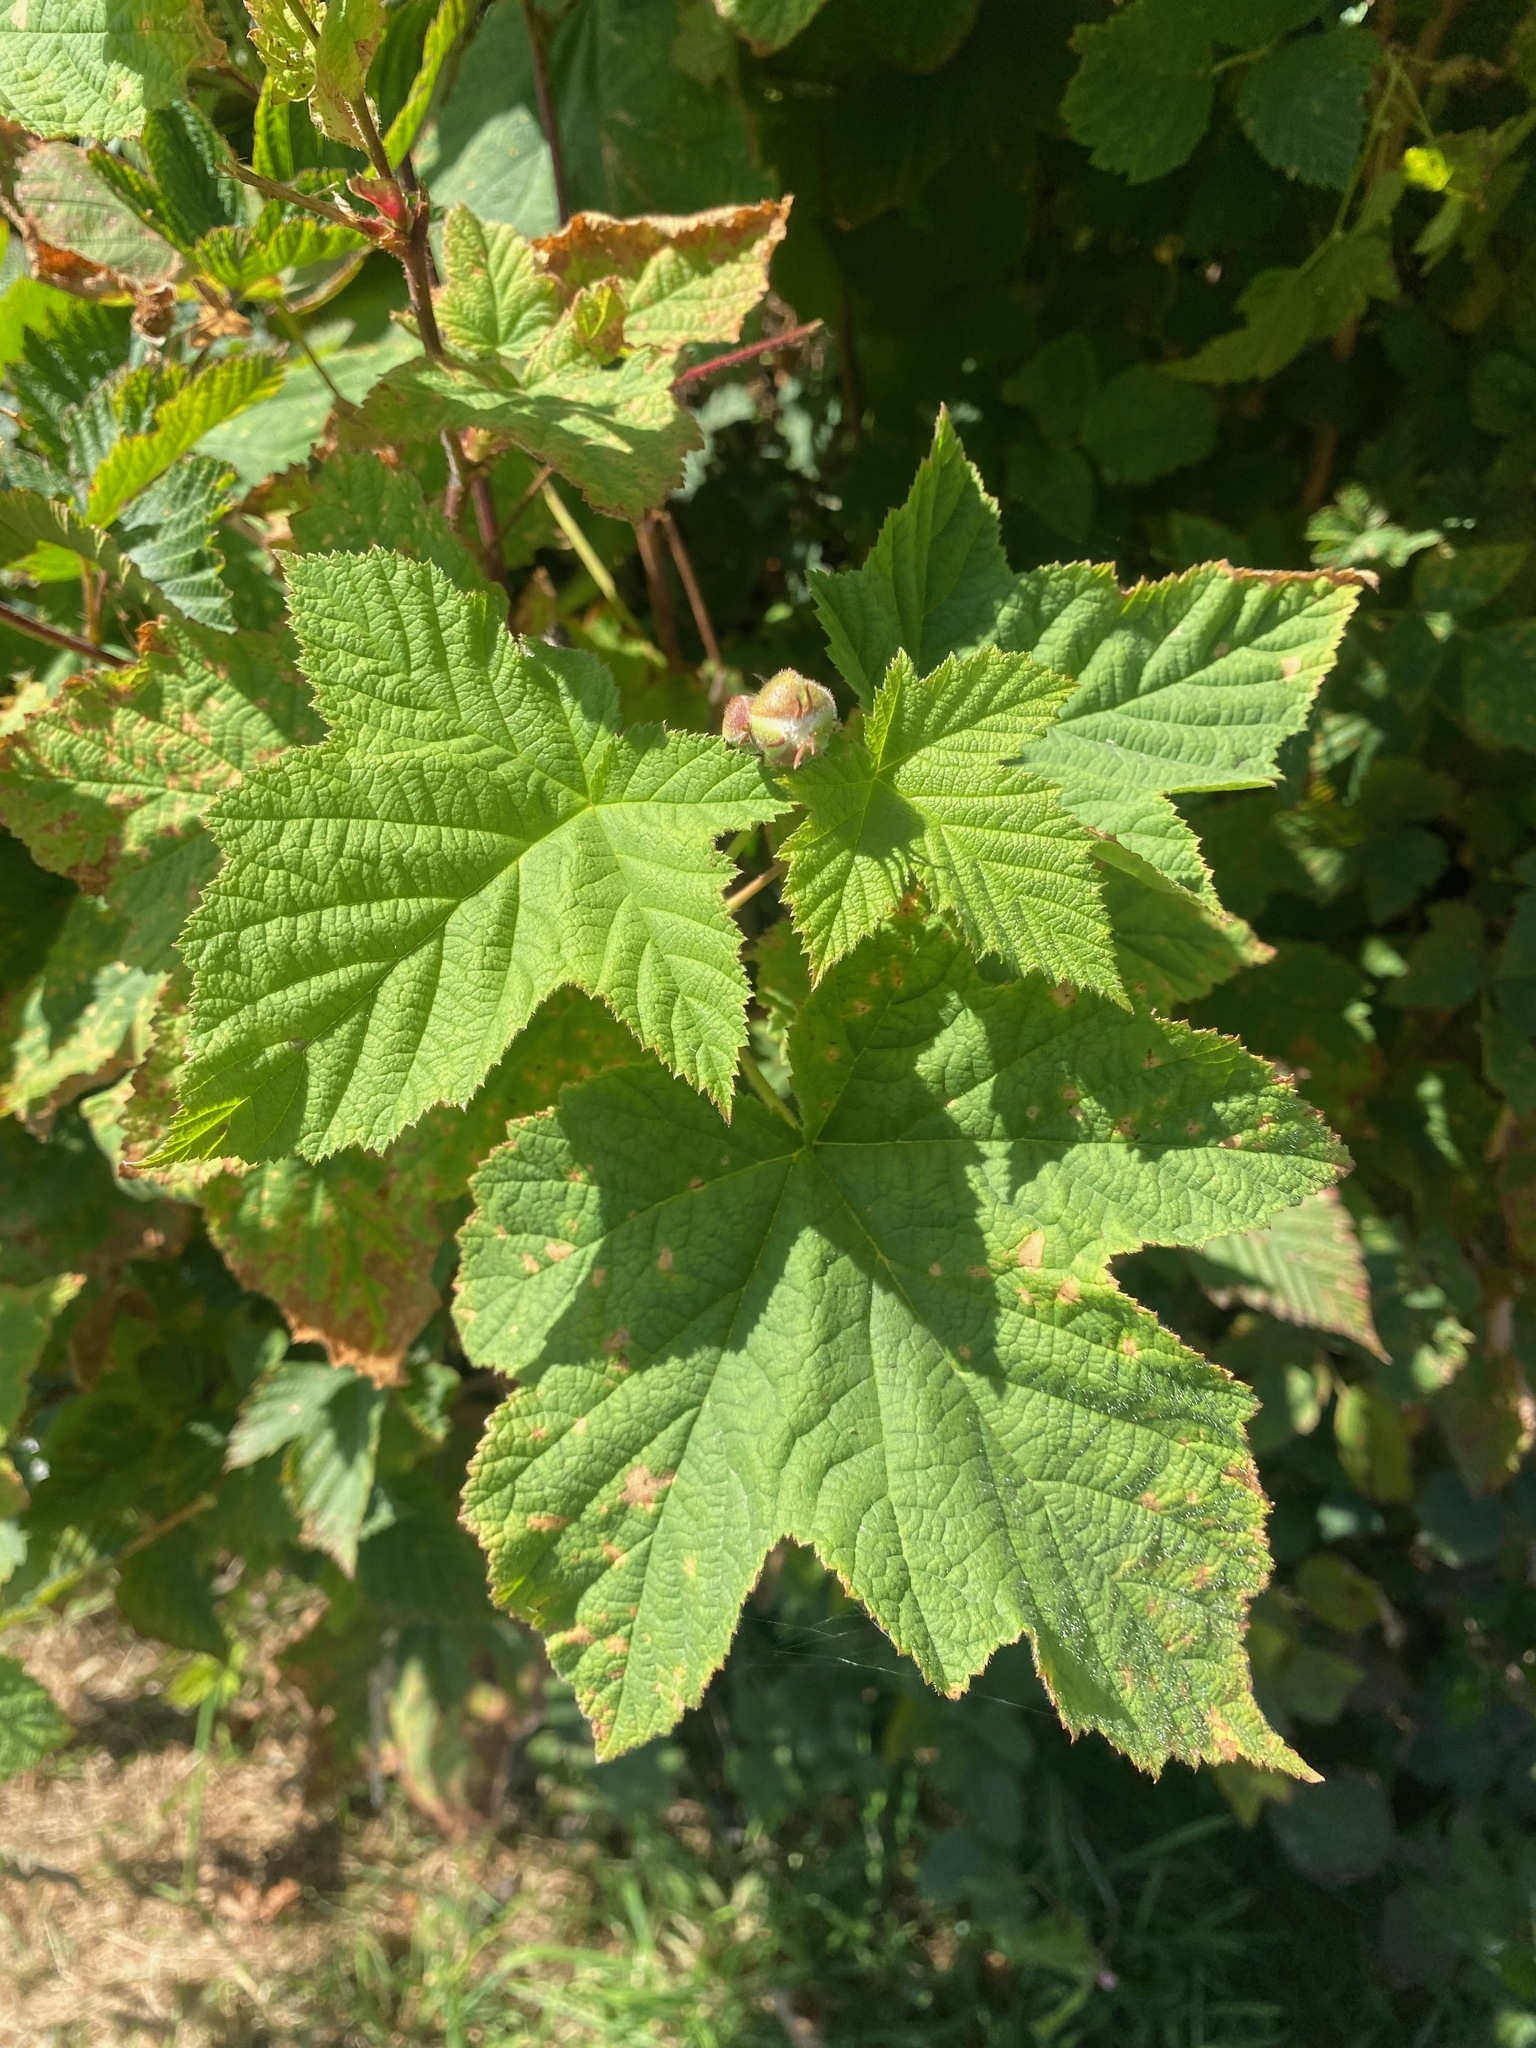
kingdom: Plantae
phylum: Tracheophyta
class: Magnoliopsida
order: Rosales
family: Rosaceae
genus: Rubus
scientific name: Rubus parviflorus
